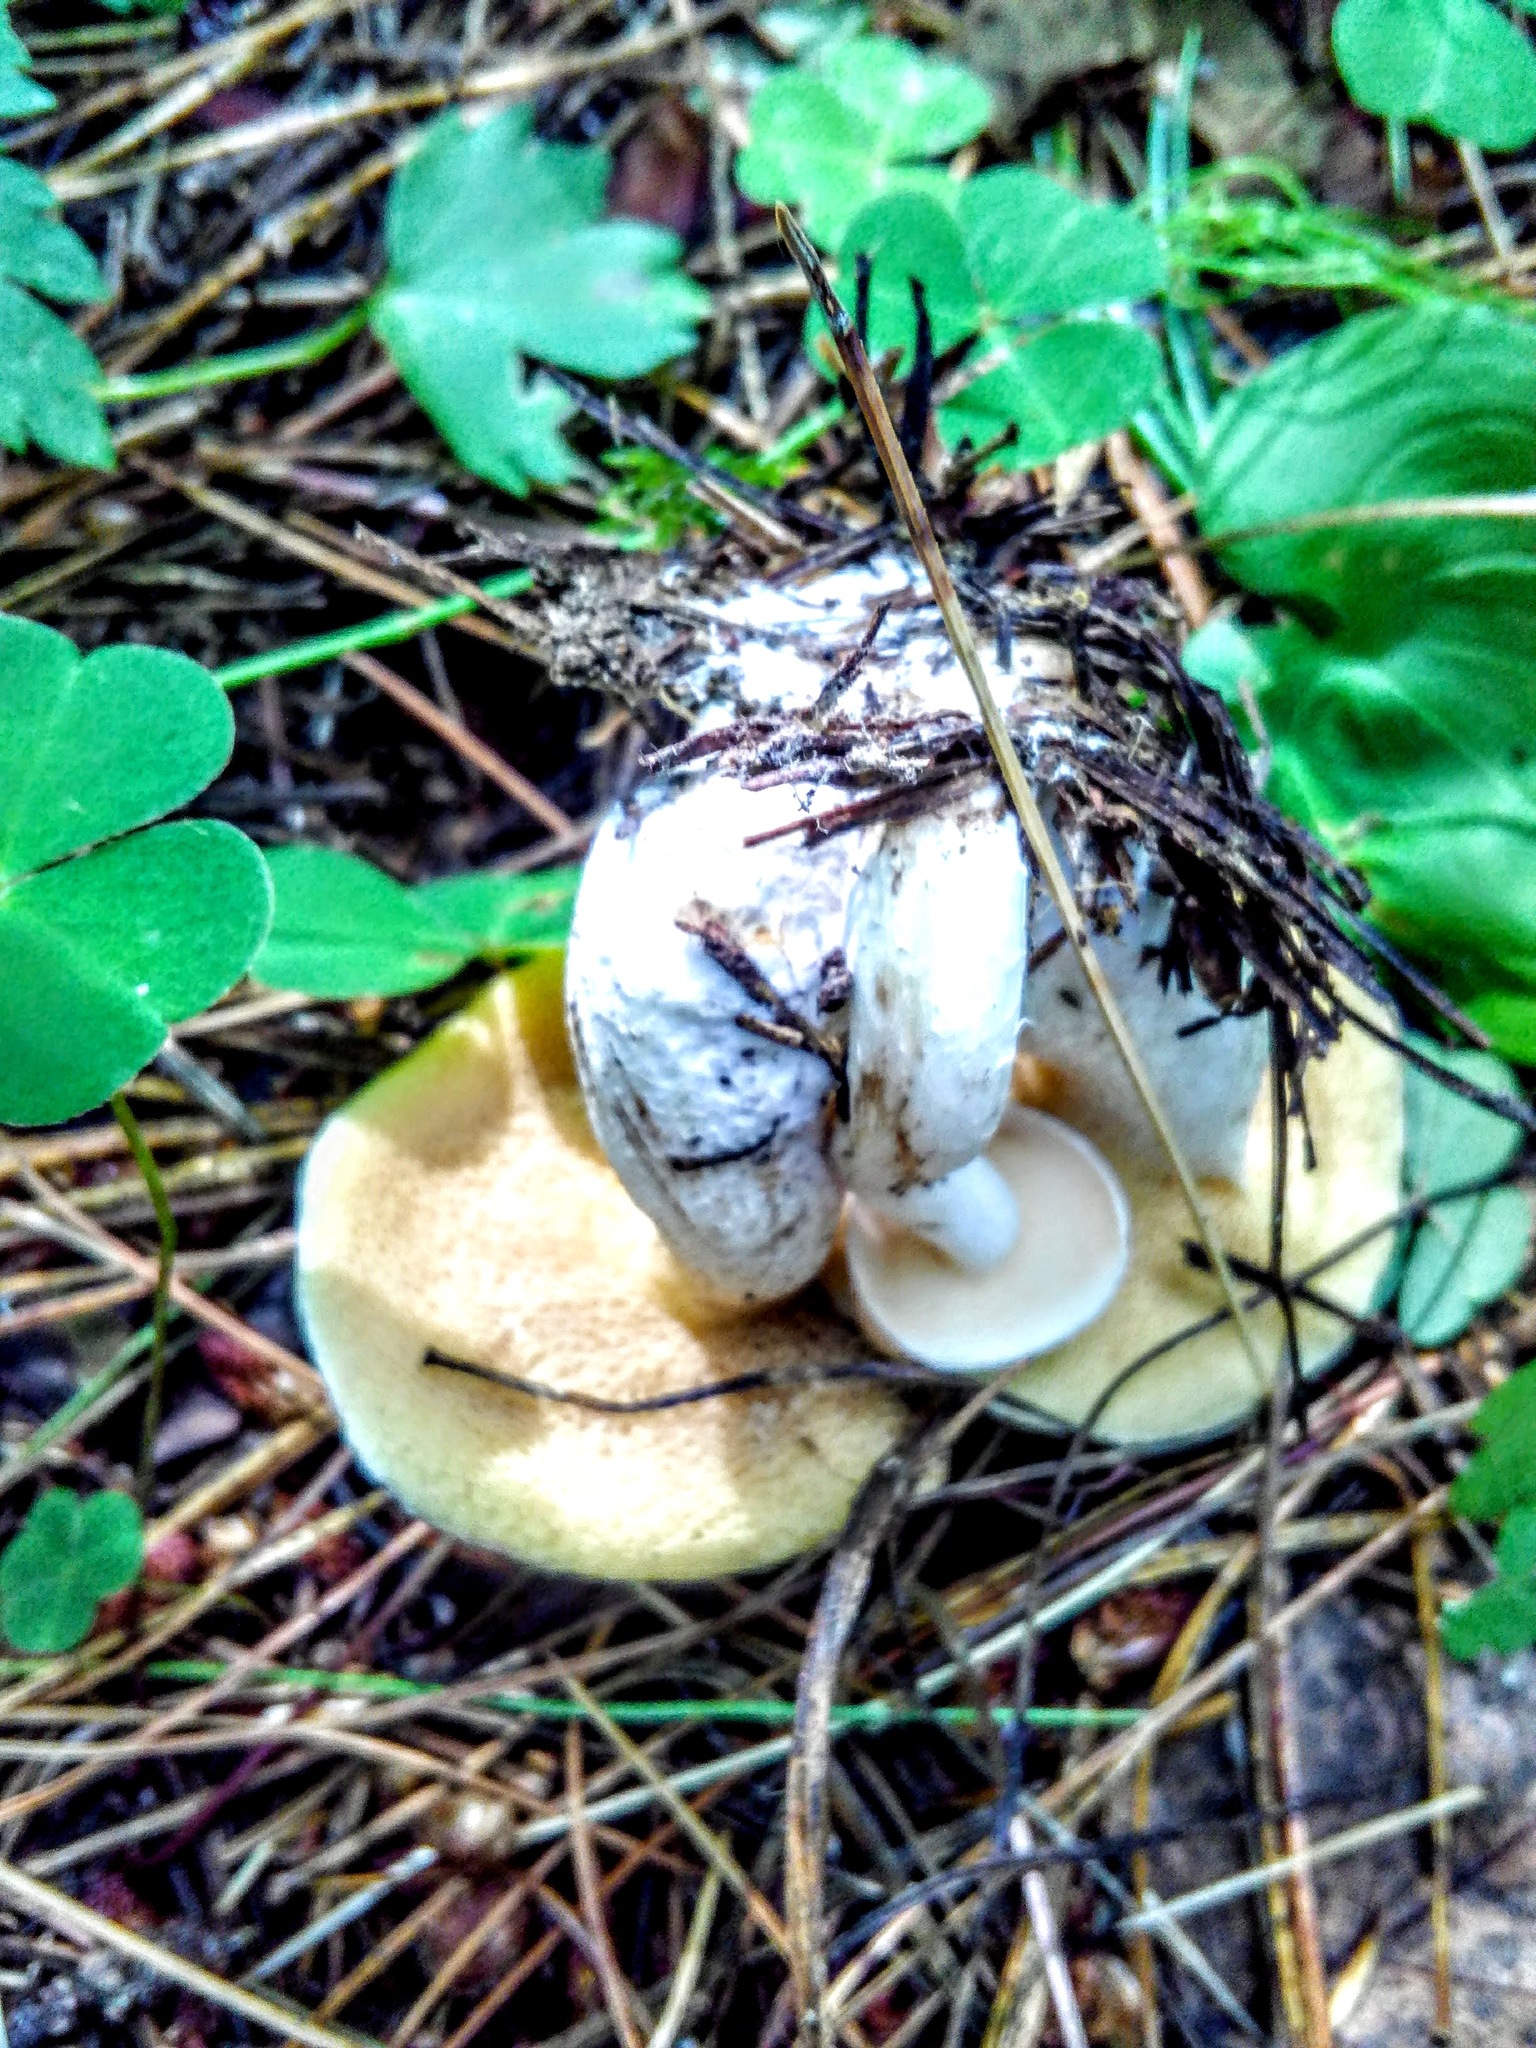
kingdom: Fungi
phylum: Basidiomycota
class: Agaricomycetes
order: Boletales
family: Suillaceae
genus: Suillus
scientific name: Suillus placidus
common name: Slippery white bolete
